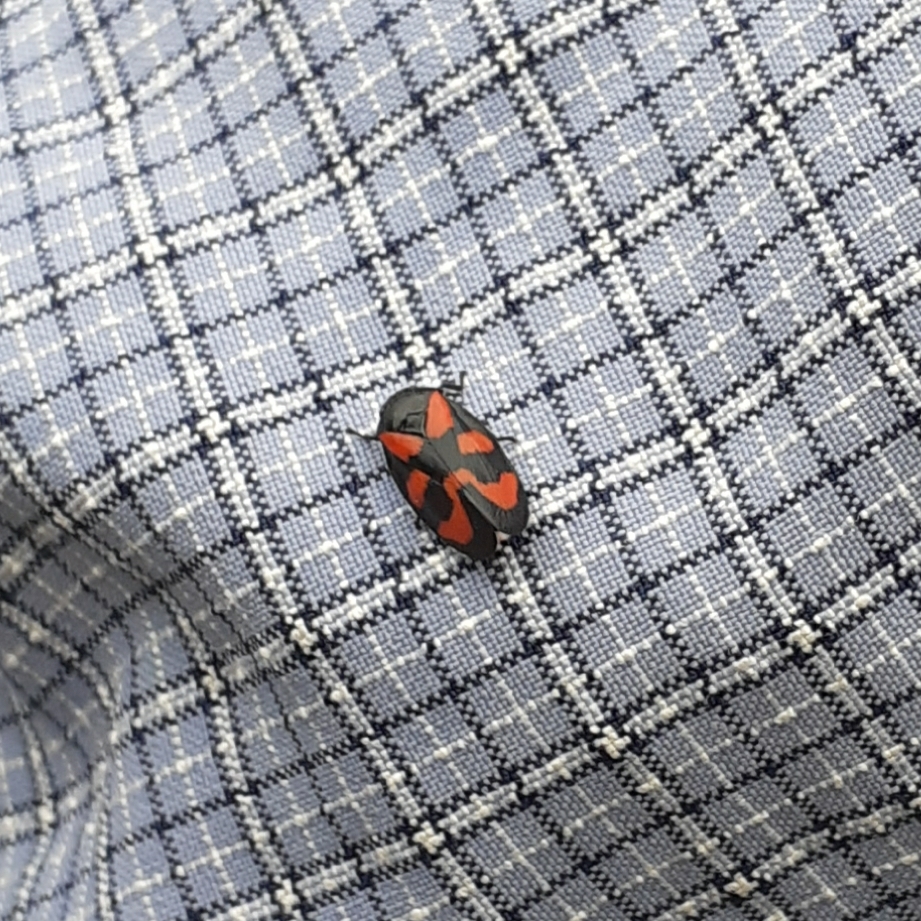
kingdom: Animalia
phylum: Arthropoda
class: Insecta
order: Hemiptera
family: Cercopidae
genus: Cercopis
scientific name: Cercopis vulnerata
